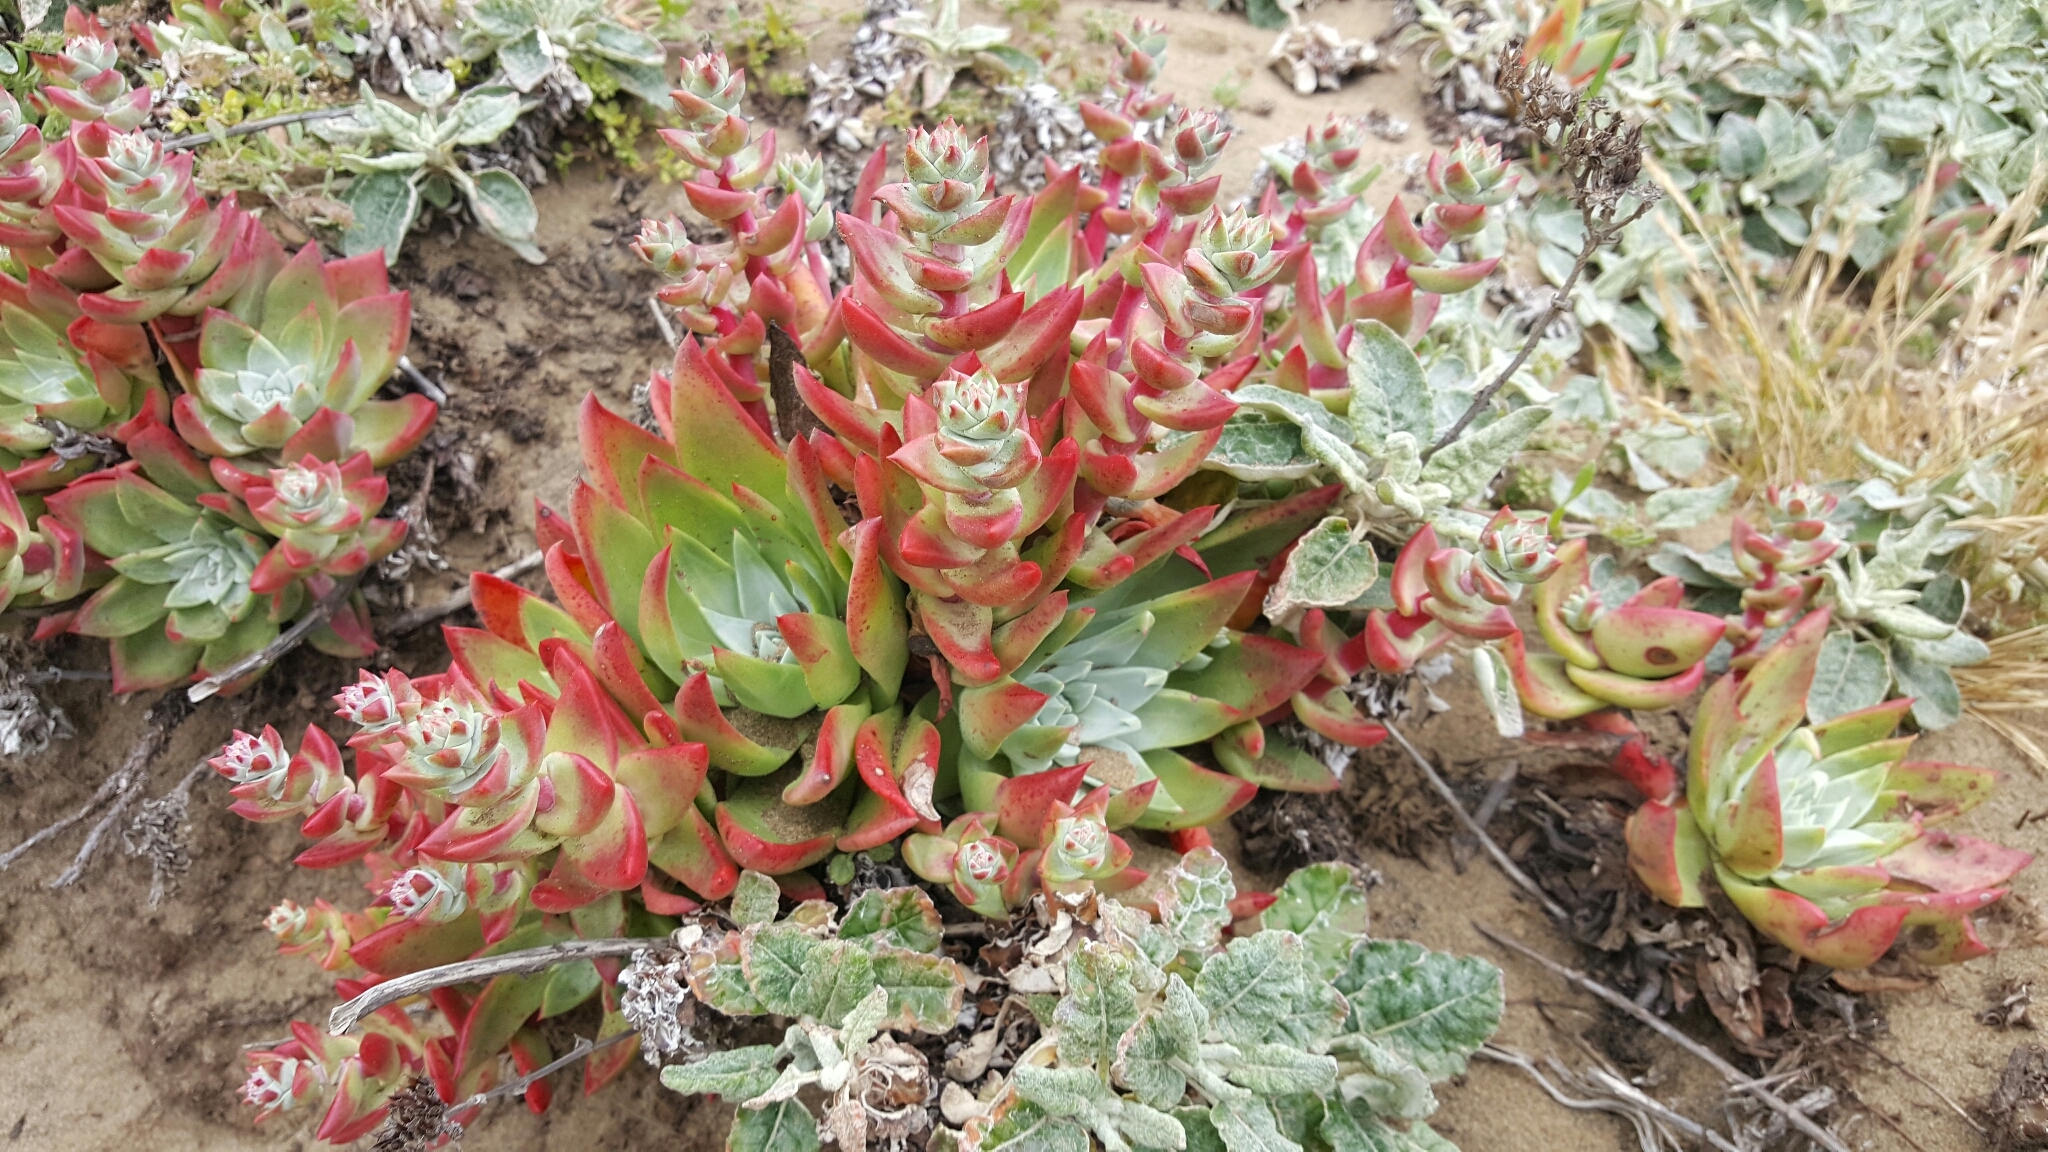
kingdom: Plantae
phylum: Tracheophyta
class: Magnoliopsida
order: Saxifragales
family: Crassulaceae
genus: Dudleya
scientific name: Dudleya farinosa
